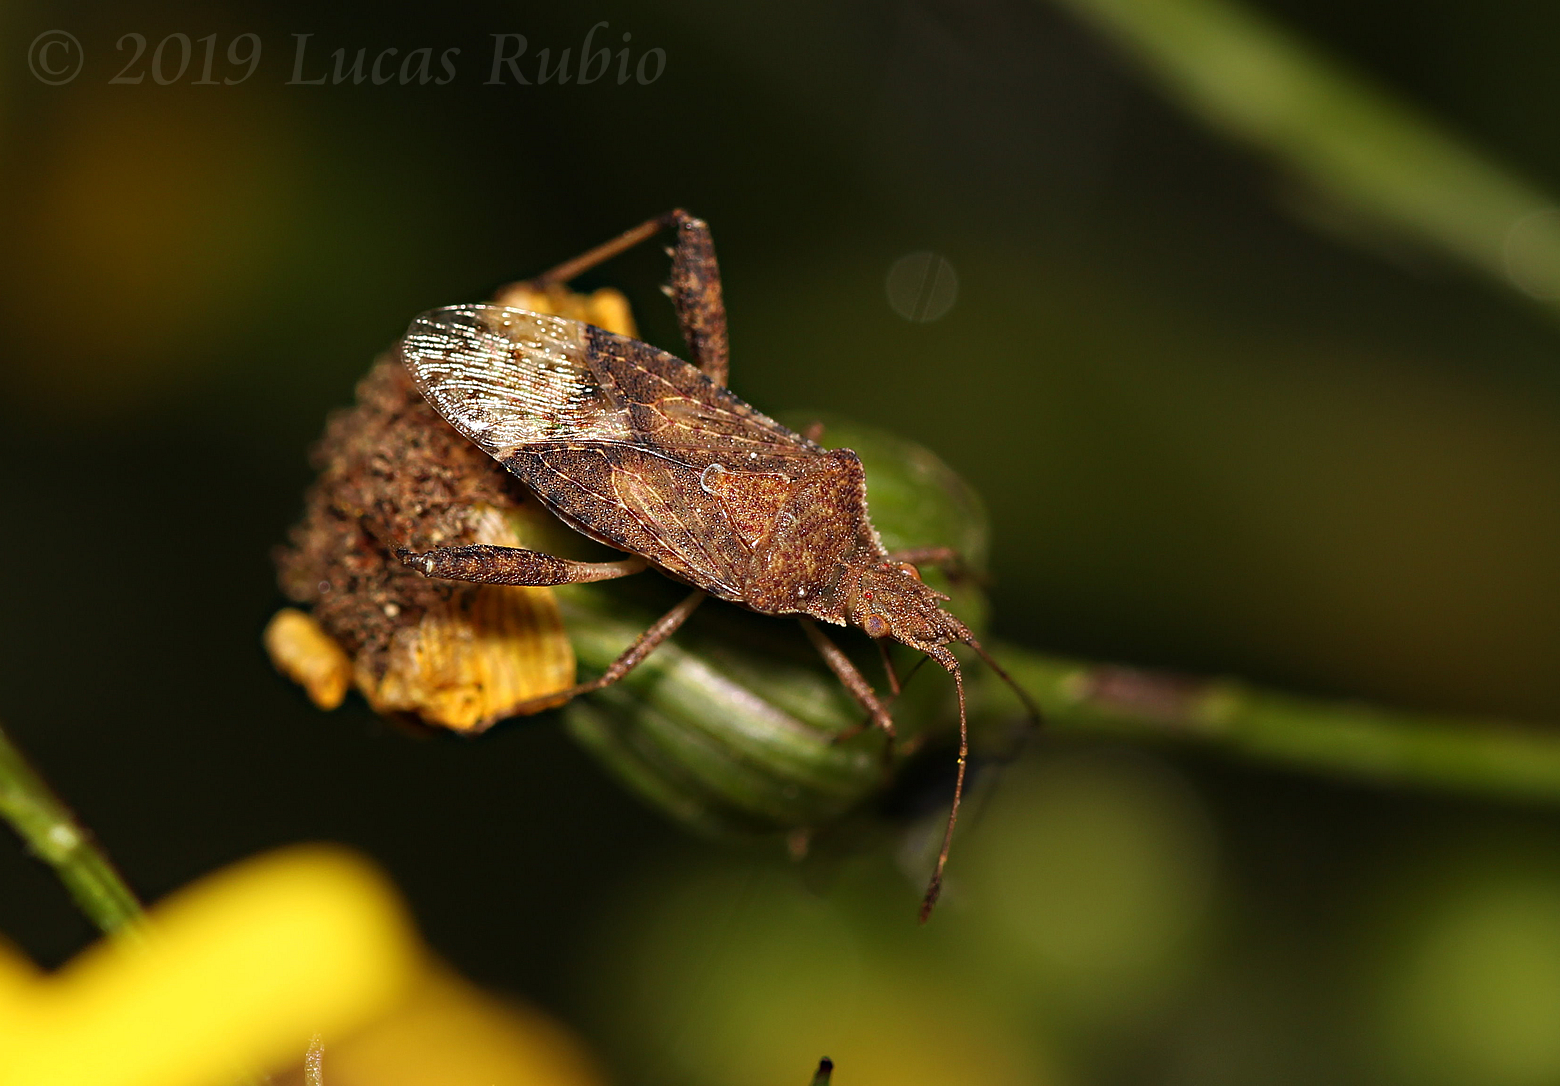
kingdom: Animalia
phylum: Arthropoda
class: Insecta
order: Hemiptera
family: Rhopalidae
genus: Harmostes
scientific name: Harmostes serratus
